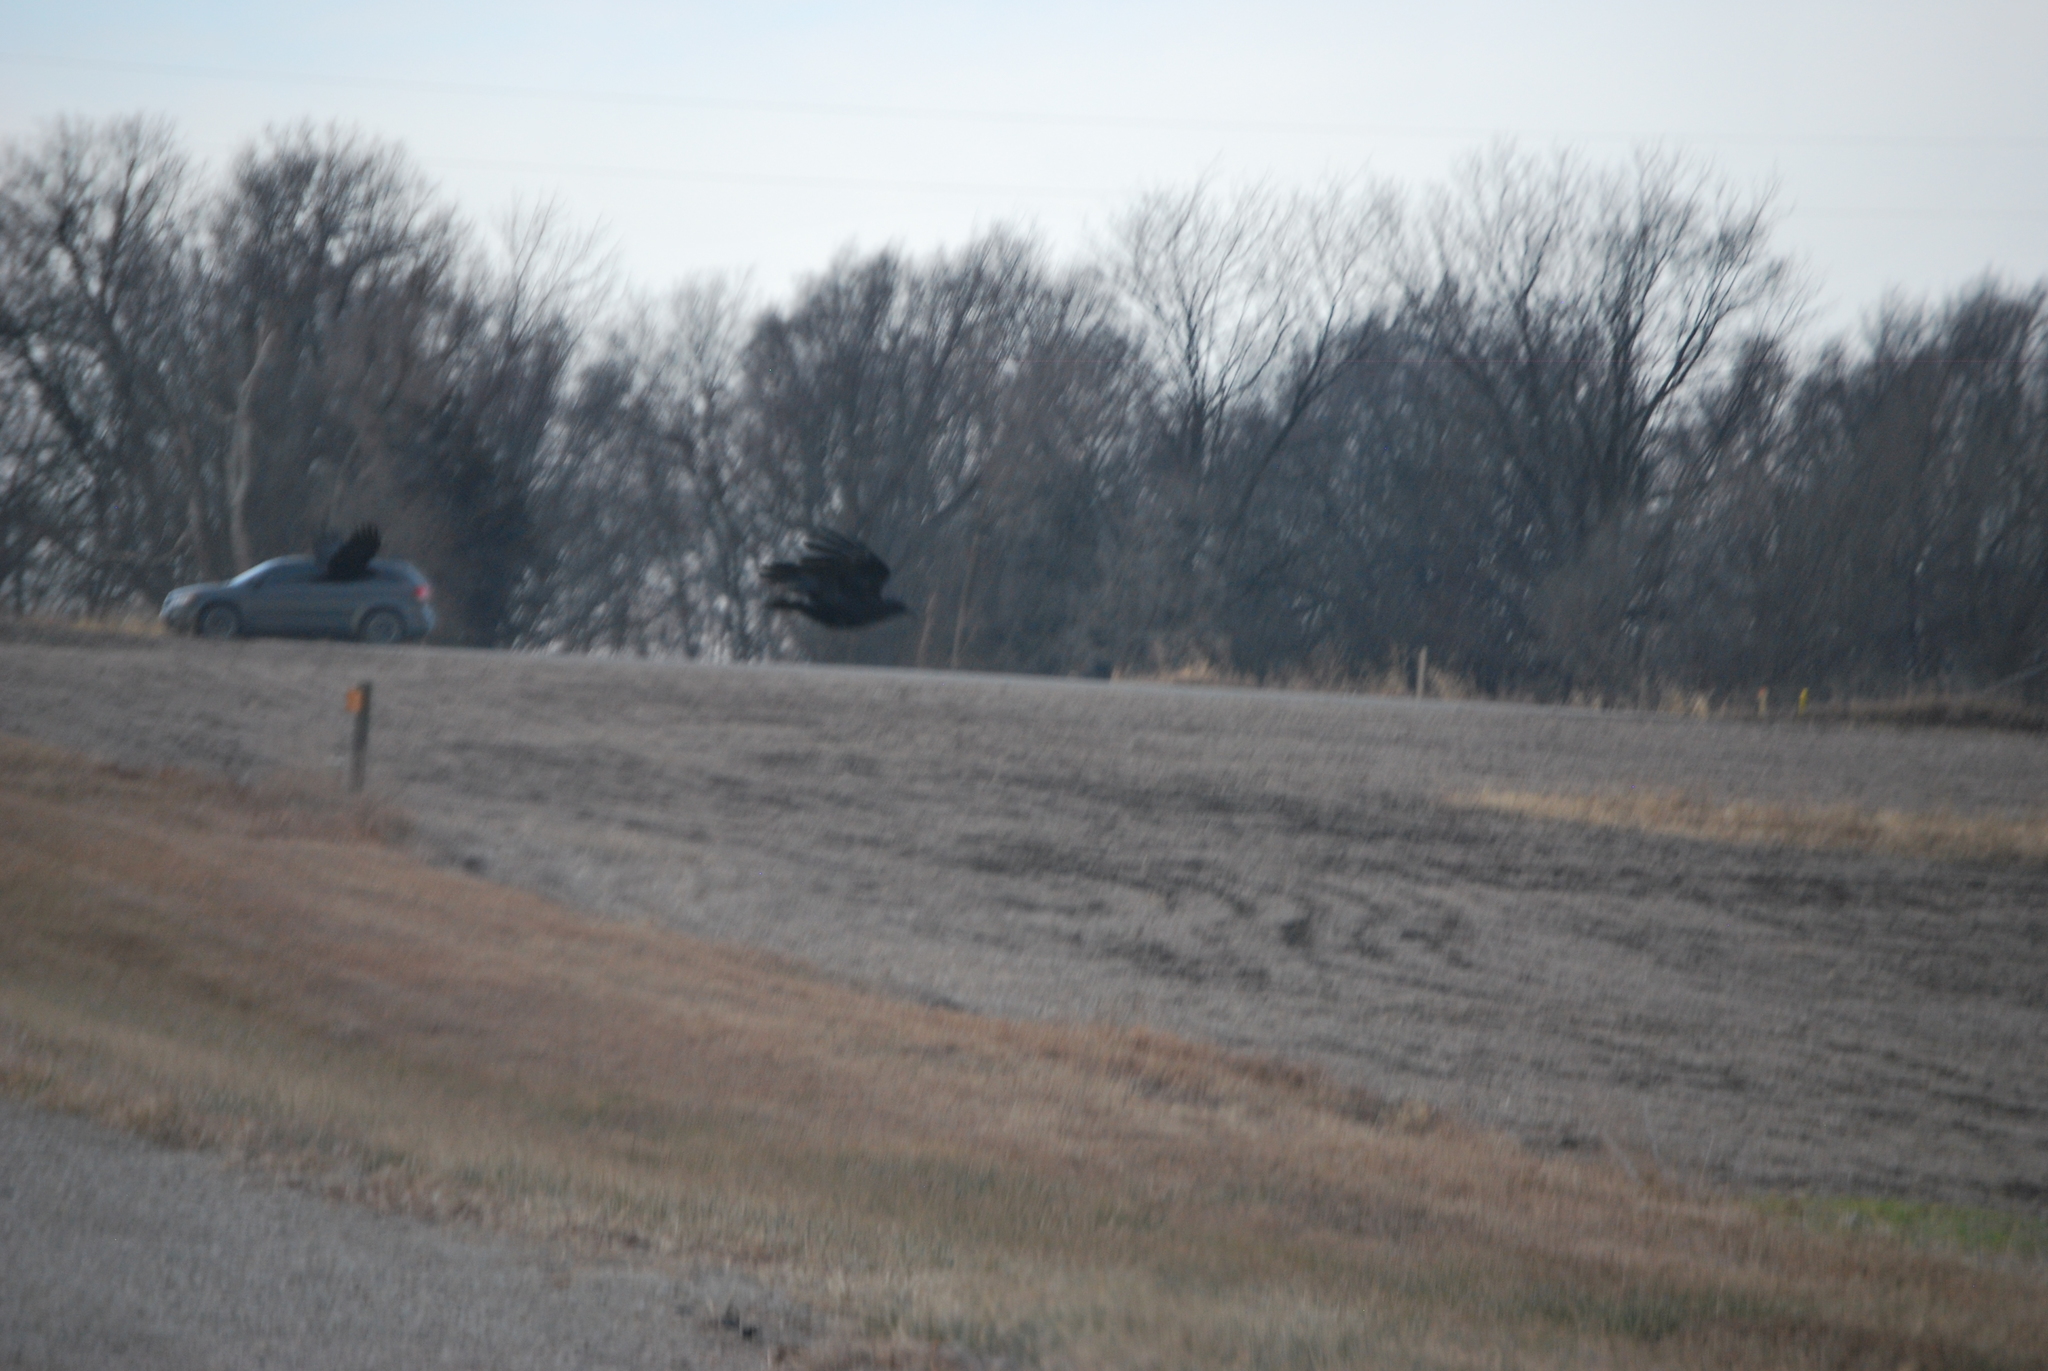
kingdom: Animalia
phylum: Chordata
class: Aves
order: Passeriformes
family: Corvidae
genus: Corvus
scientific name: Corvus brachyrhynchos
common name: American crow
